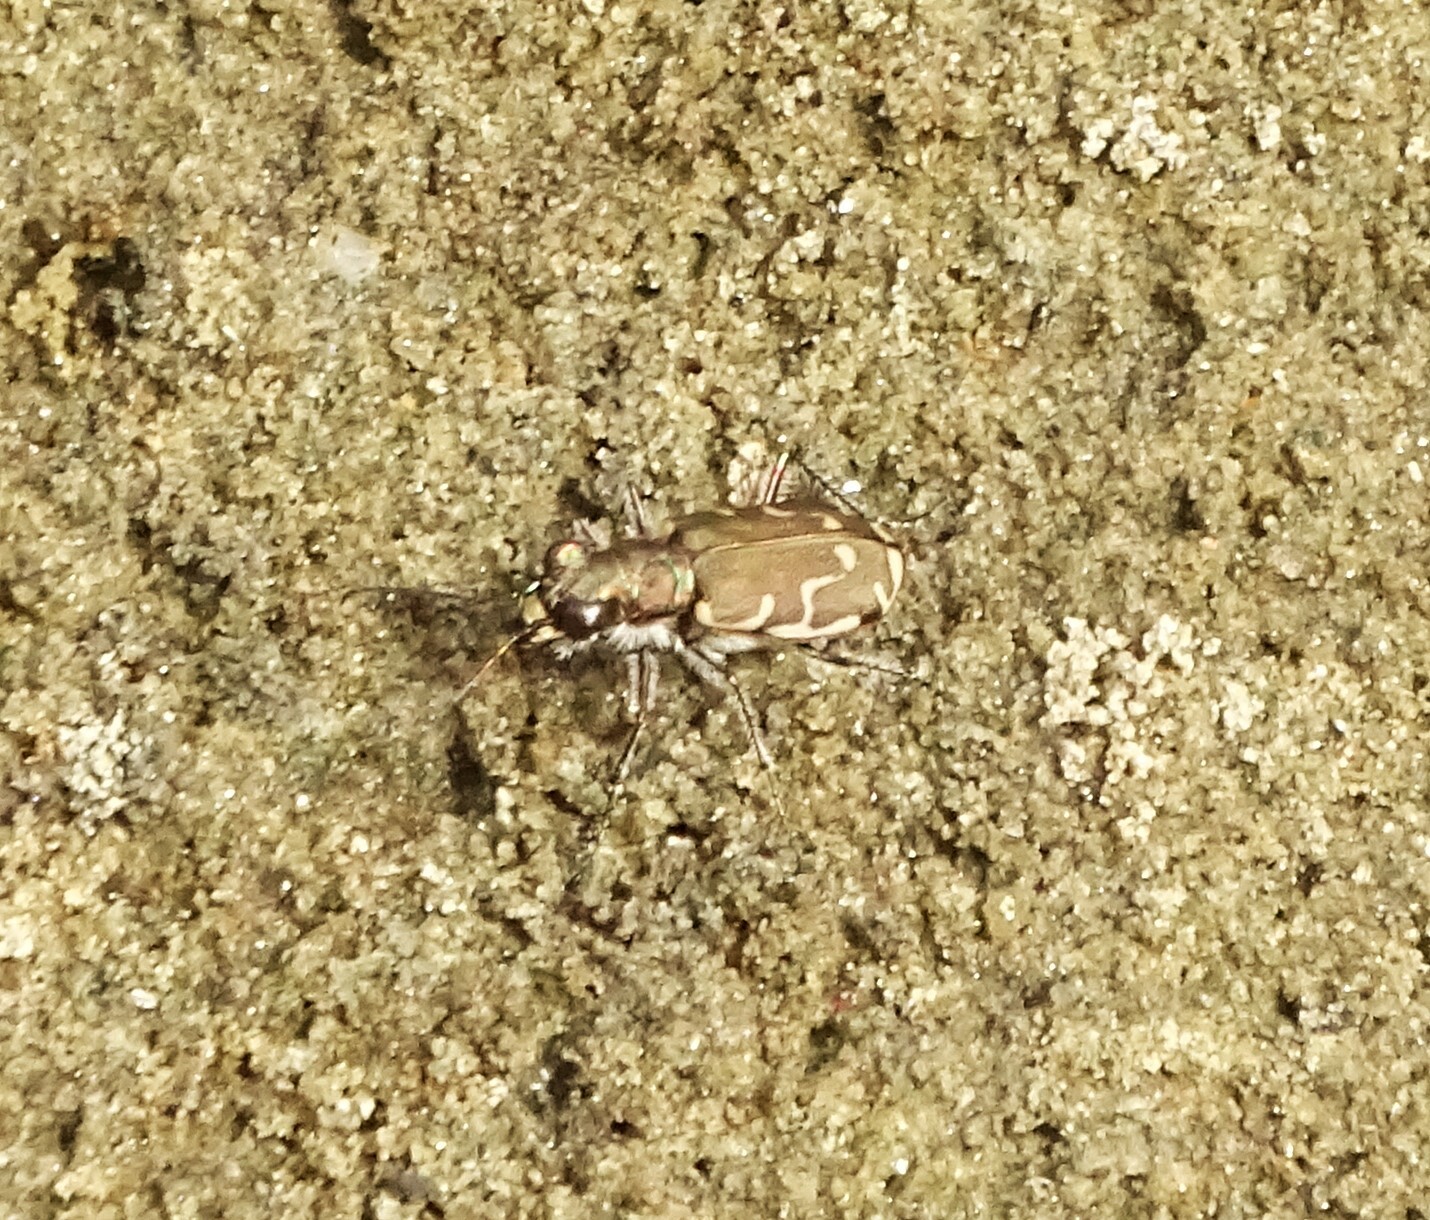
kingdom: Animalia
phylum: Arthropoda
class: Insecta
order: Coleoptera
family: Carabidae
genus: Cicindela
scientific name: Cicindela repanda
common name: Bronzed tiger beetle
